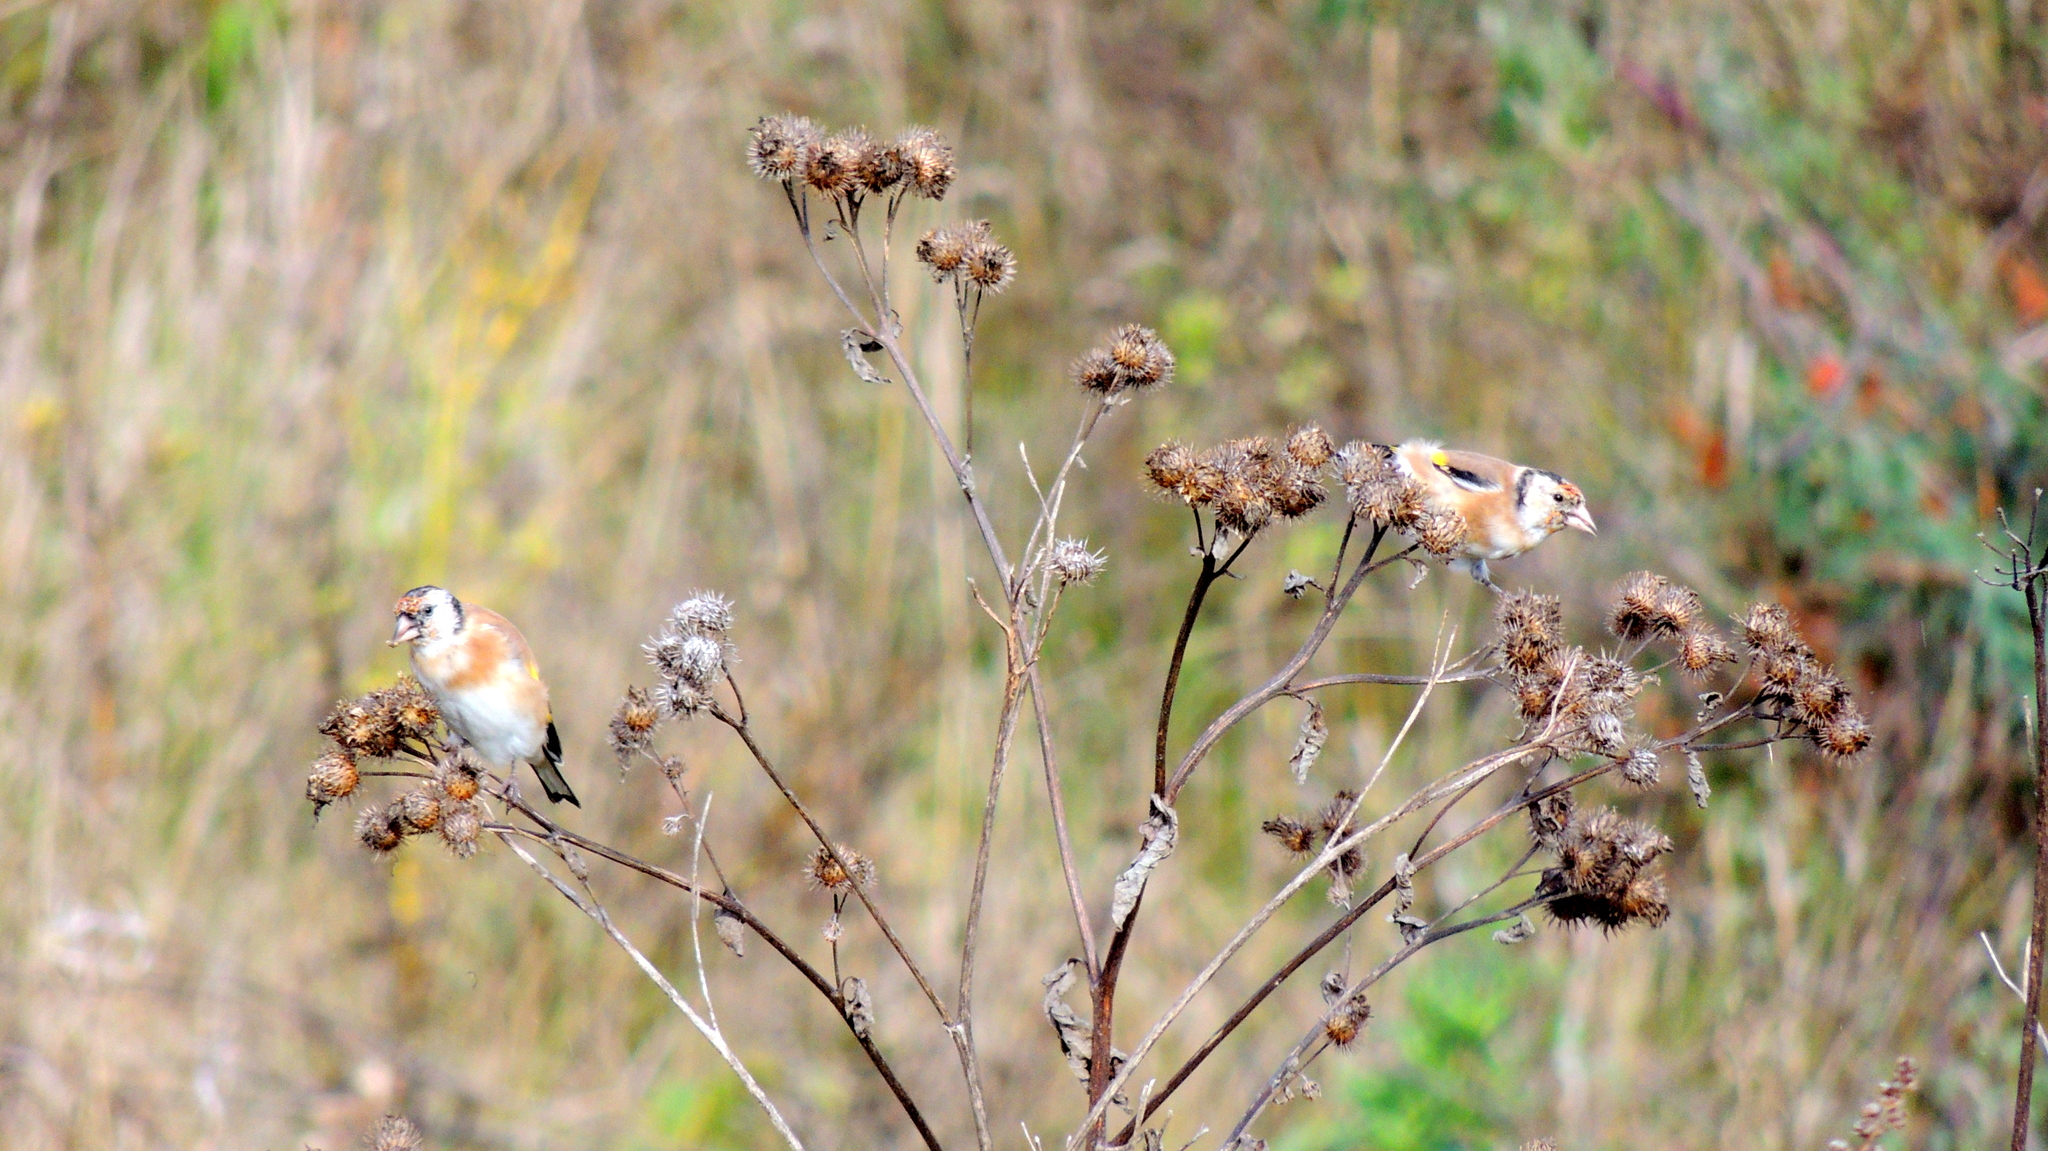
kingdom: Animalia
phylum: Chordata
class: Aves
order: Passeriformes
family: Fringillidae
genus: Carduelis
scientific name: Carduelis carduelis
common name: European goldfinch
